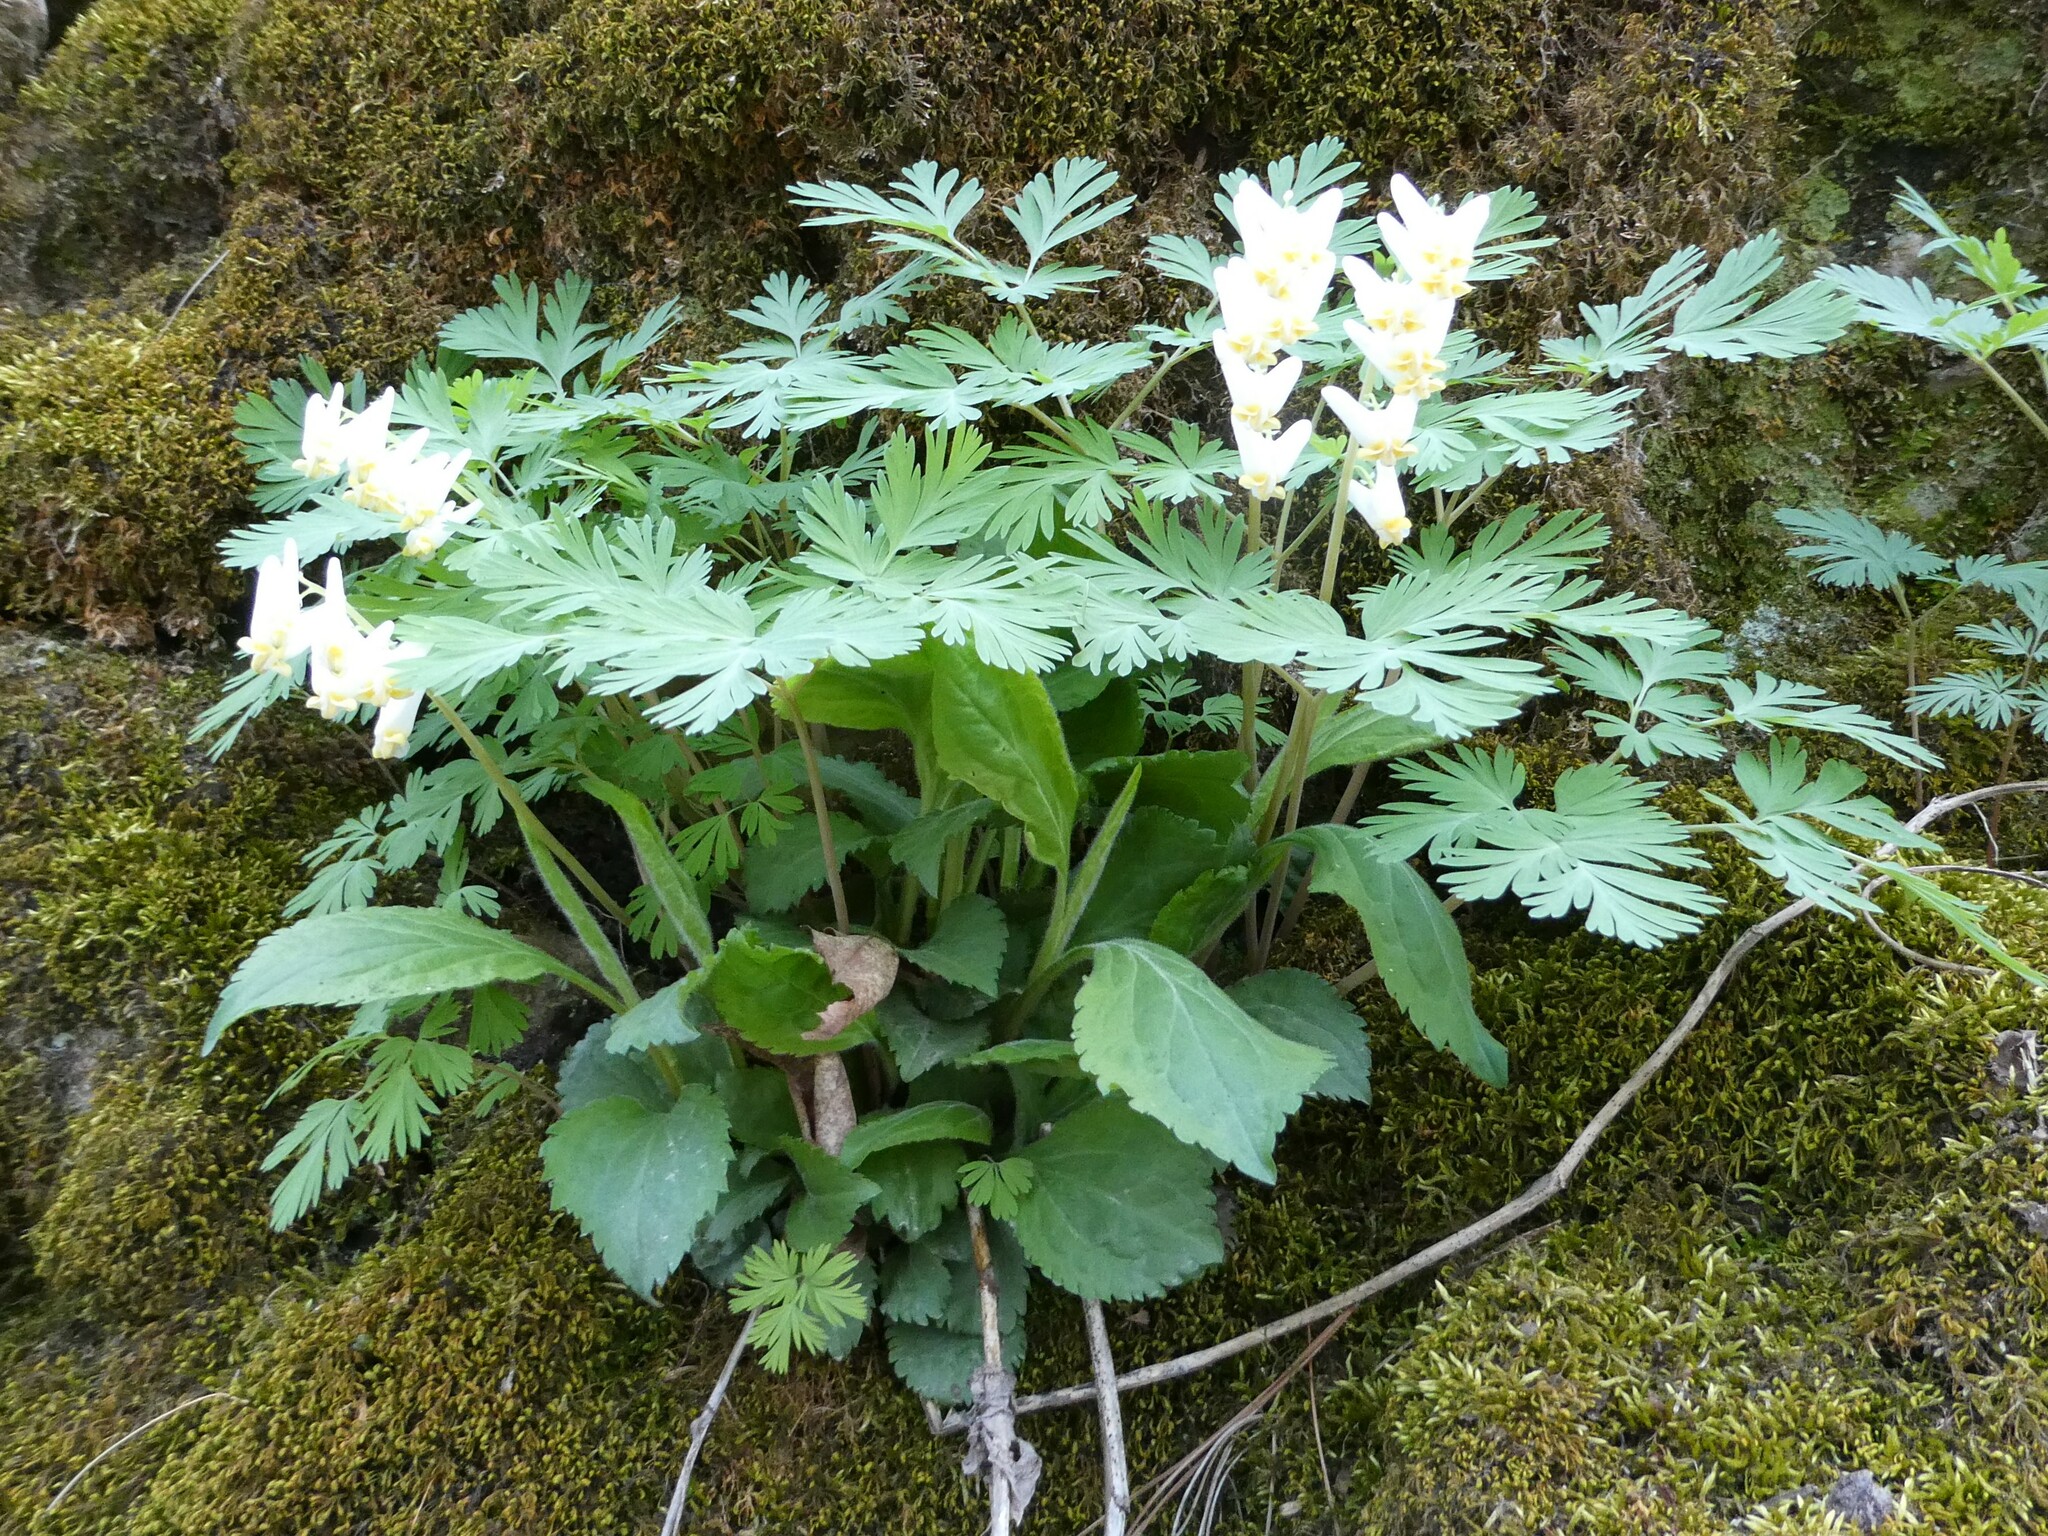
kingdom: Plantae
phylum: Tracheophyta
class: Magnoliopsida
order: Ranunculales
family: Papaveraceae
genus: Dicentra
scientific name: Dicentra cucullaria
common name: Dutchman's breeches
